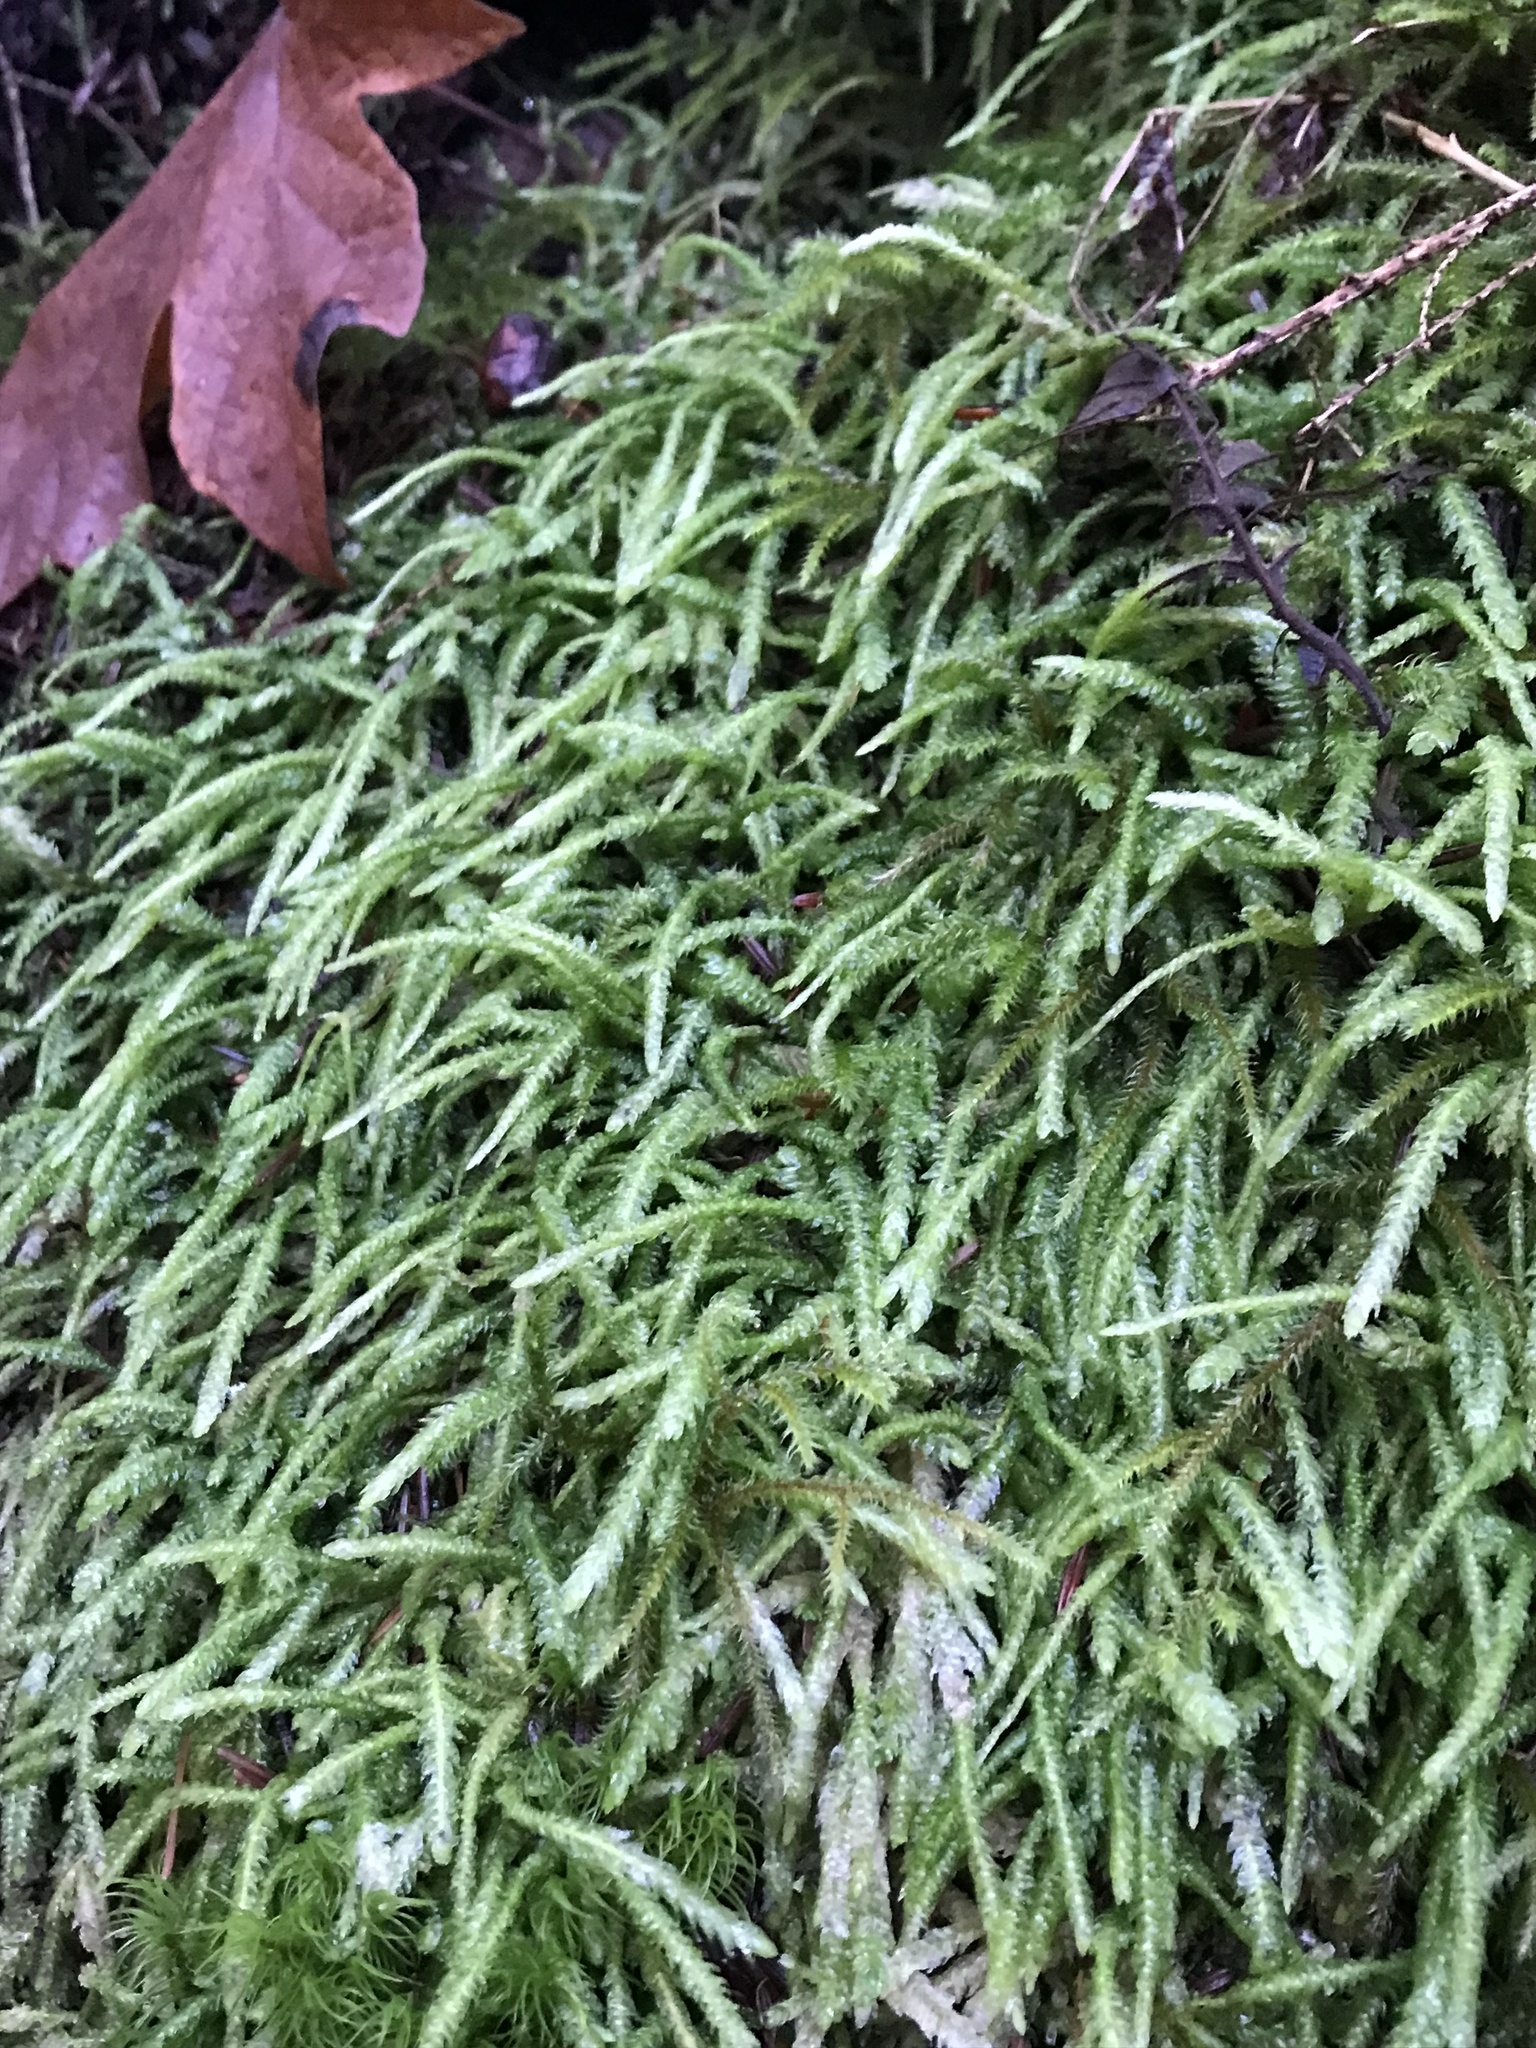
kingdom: Plantae
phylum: Bryophyta
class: Bryopsida
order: Hypnales
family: Plagiotheciaceae
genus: Plagiothecium
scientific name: Plagiothecium undulatum
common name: Waved silk-moss
